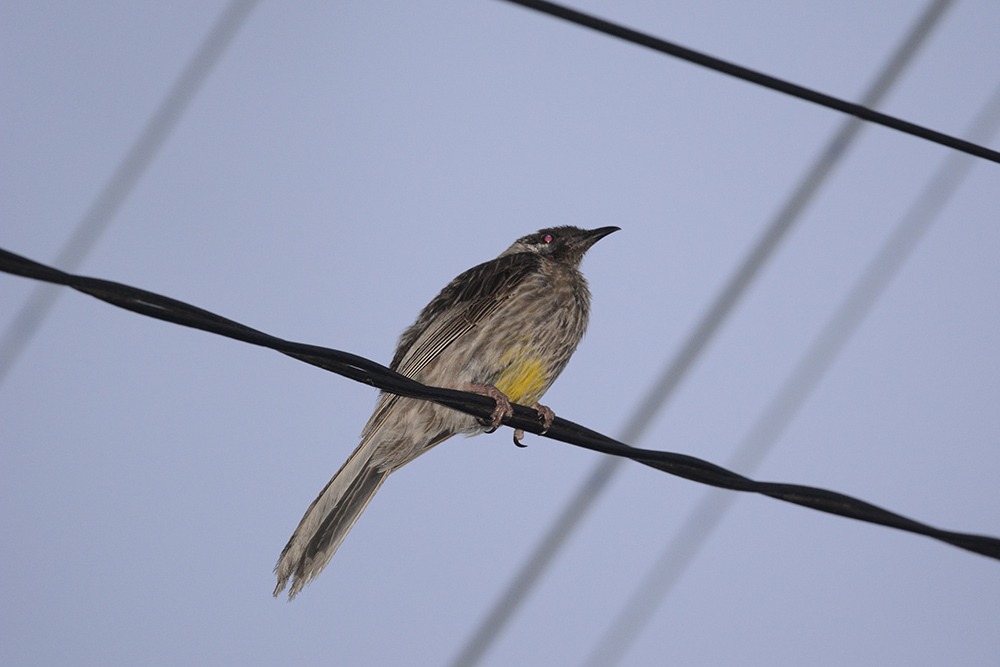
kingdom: Animalia
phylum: Chordata
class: Aves
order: Passeriformes
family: Meliphagidae
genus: Anthochaera
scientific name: Anthochaera carunculata
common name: Red wattlebird
